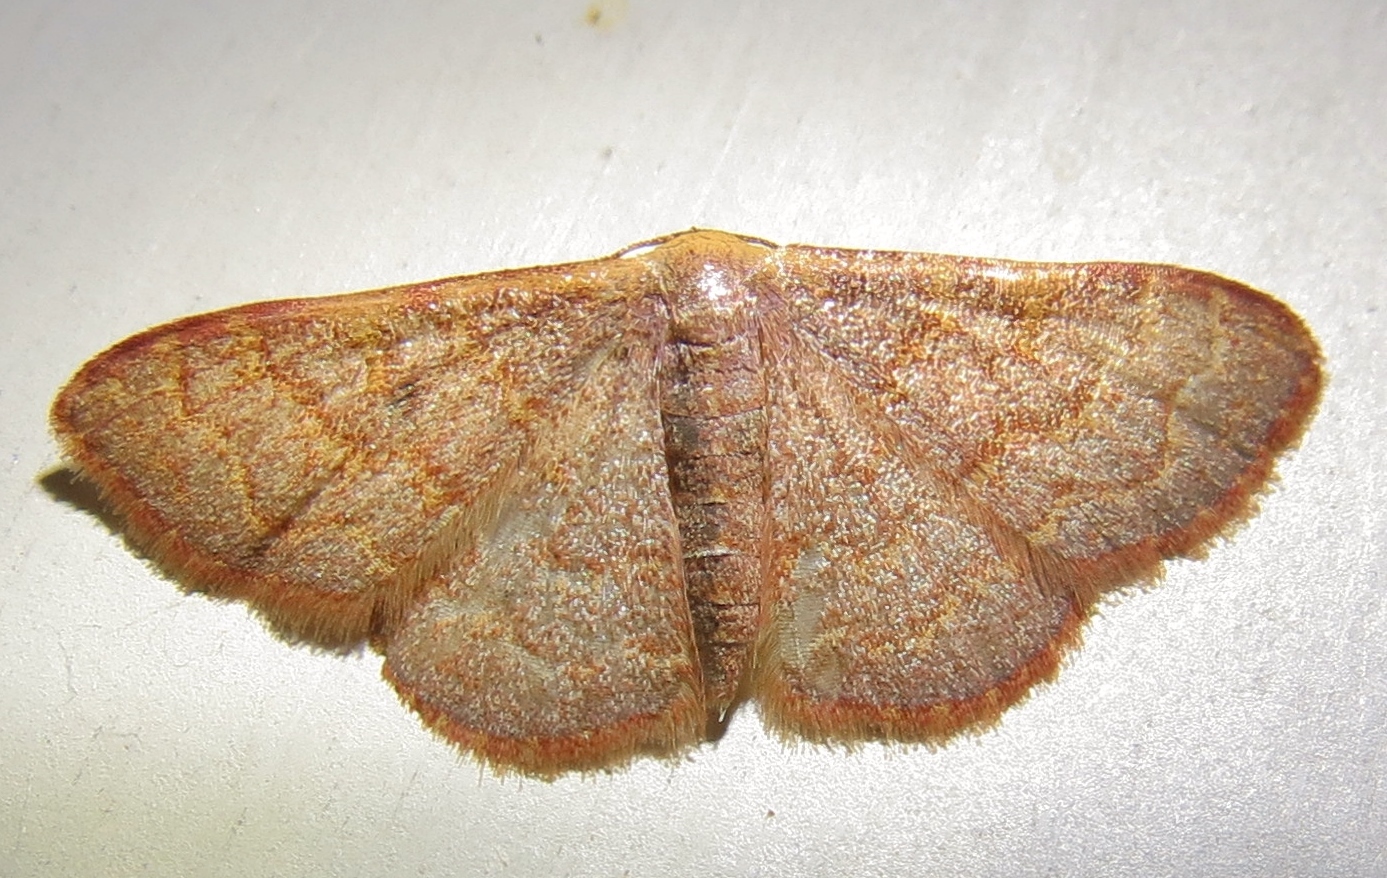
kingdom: Animalia
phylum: Arthropoda
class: Insecta
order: Lepidoptera
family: Geometridae
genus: Leptostales
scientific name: Leptostales pannaria
